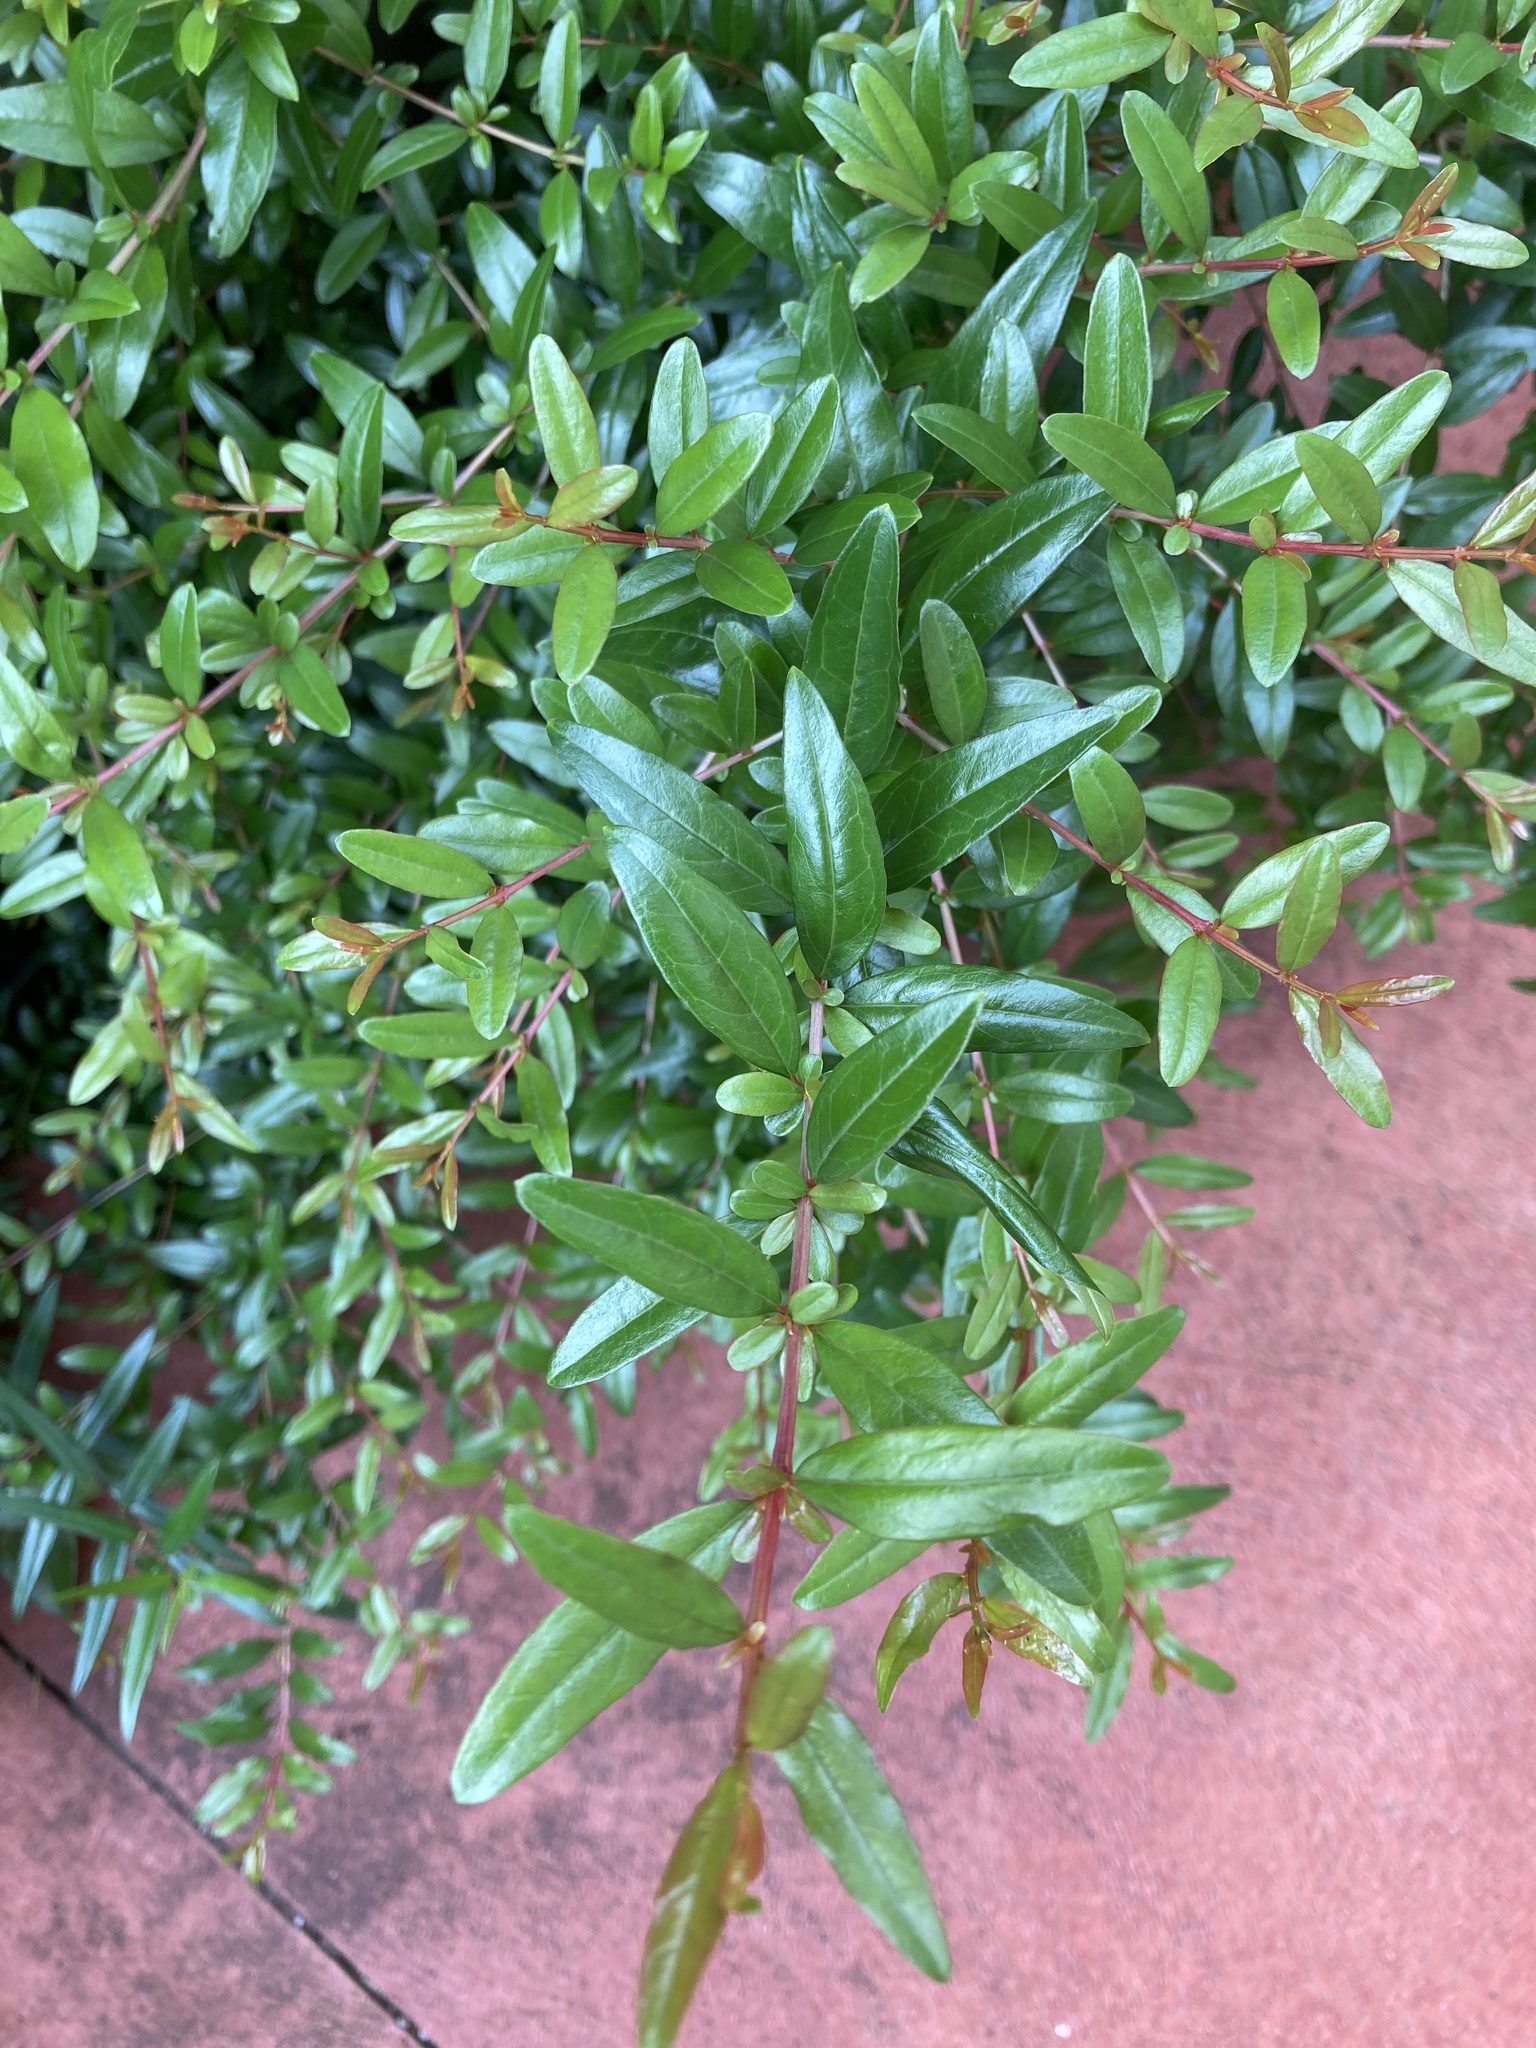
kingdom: Plantae
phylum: Tracheophyta
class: Magnoliopsida
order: Myrtales
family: Lythraceae
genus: Punica
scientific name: Punica granatum
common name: Pomegranate
